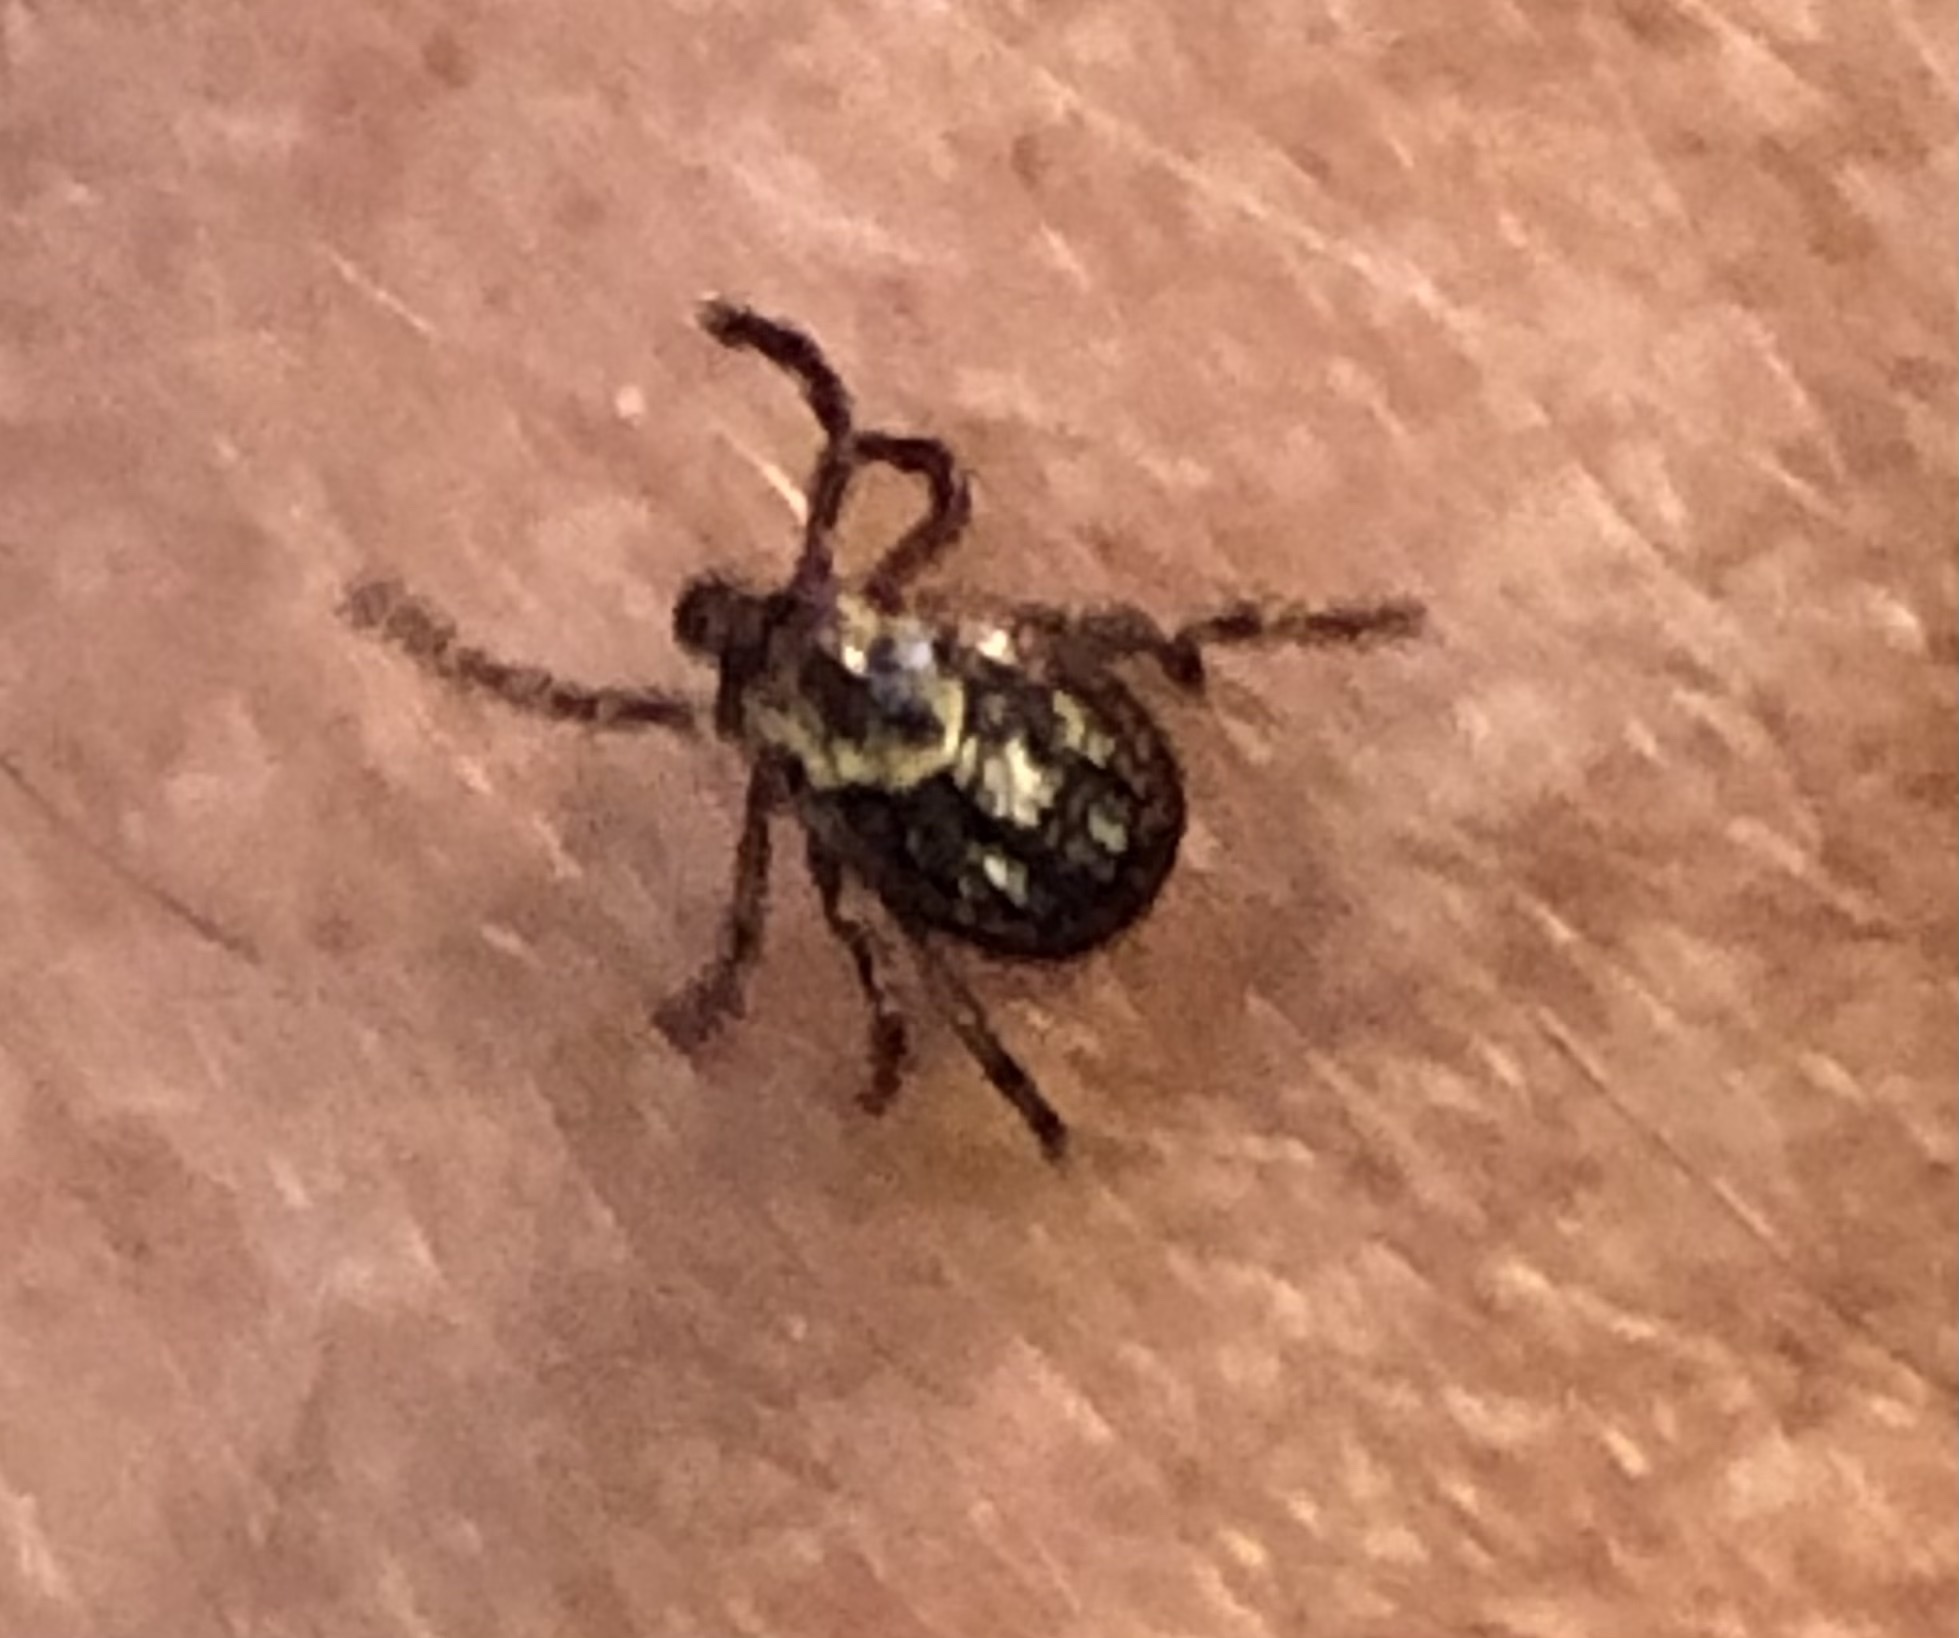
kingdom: Animalia
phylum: Arthropoda
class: Arachnida
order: Ixodida
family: Ixodidae
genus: Dermacentor
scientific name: Dermacentor variabilis
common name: American dog tick
